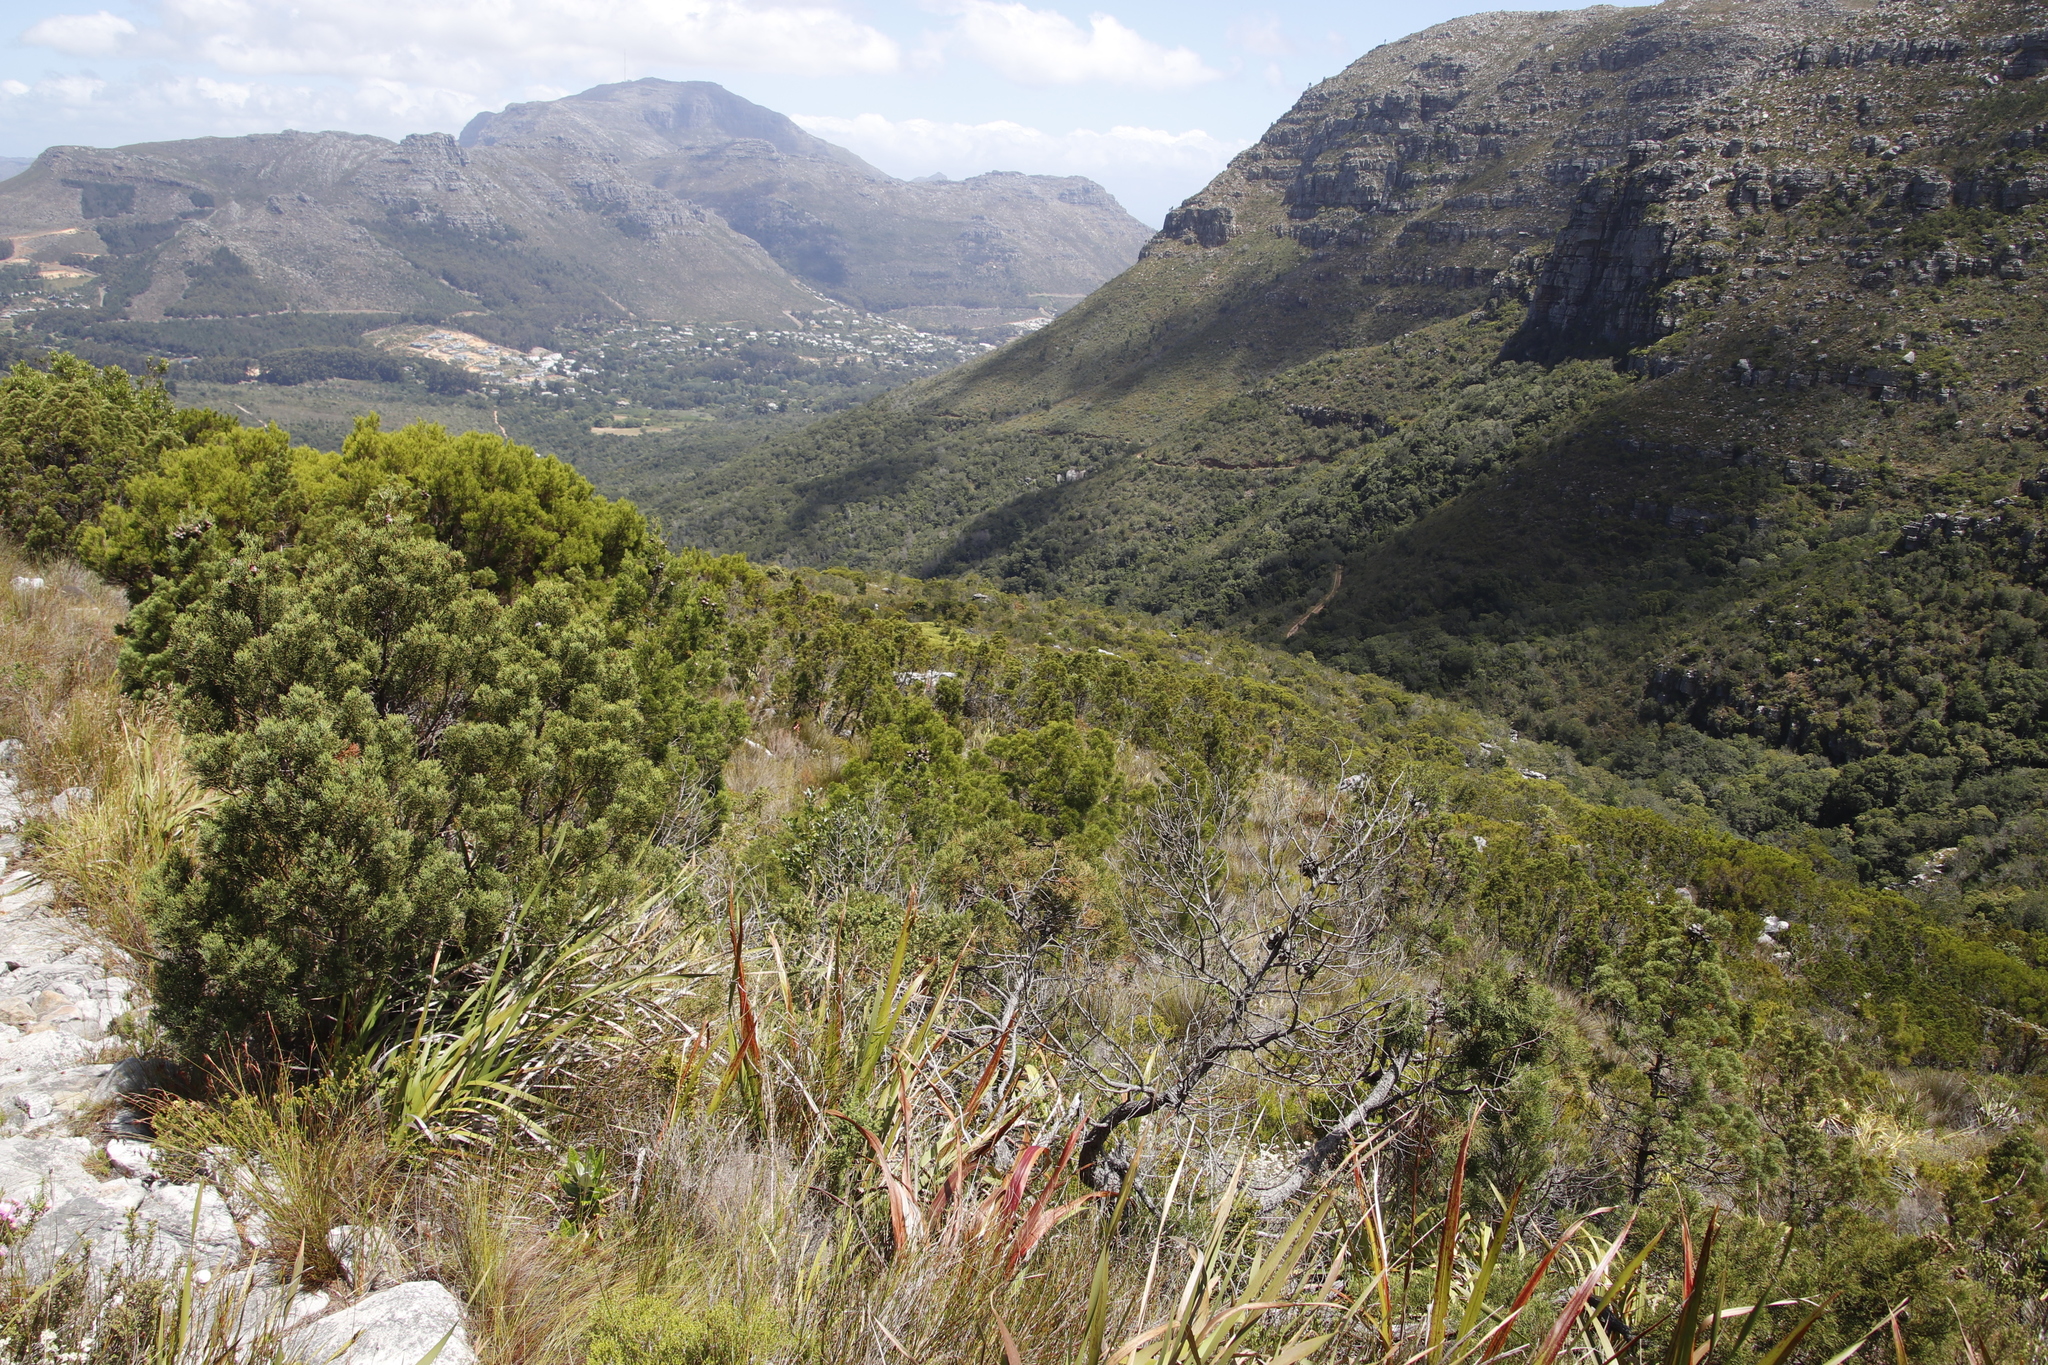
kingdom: Plantae
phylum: Tracheophyta
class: Pinopsida
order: Pinales
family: Cupressaceae
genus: Widdringtonia
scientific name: Widdringtonia nodiflora
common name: Cape cypress
